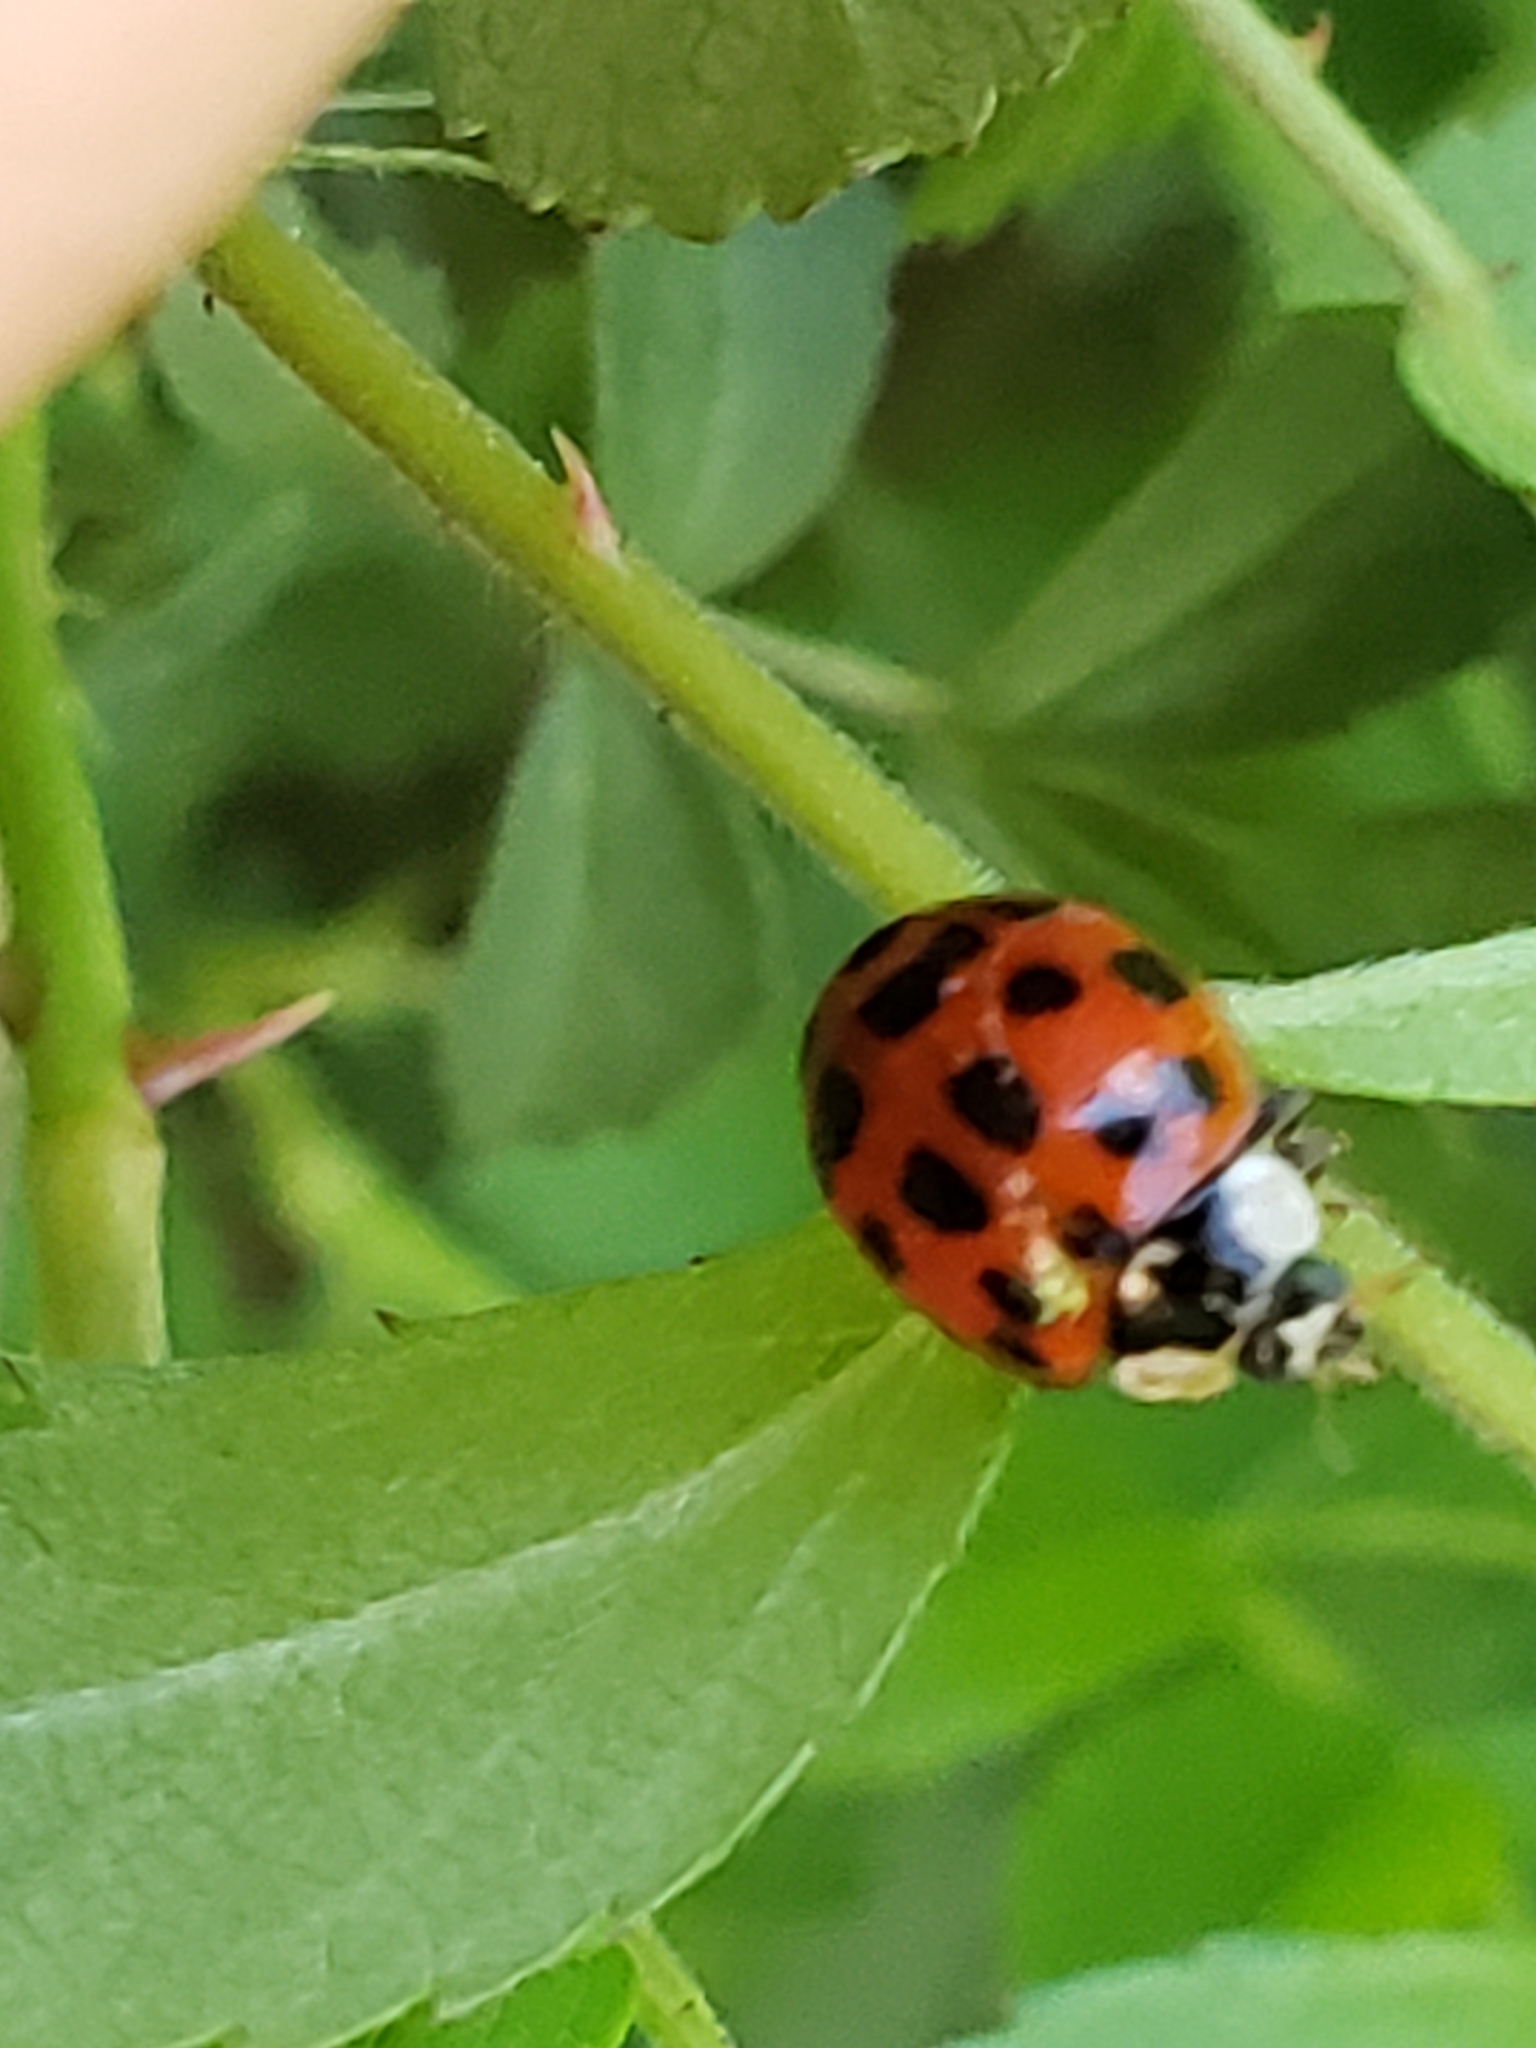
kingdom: Animalia
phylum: Arthropoda
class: Insecta
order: Coleoptera
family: Coccinellidae
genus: Harmonia
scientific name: Harmonia axyridis
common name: Harlequin ladybird
